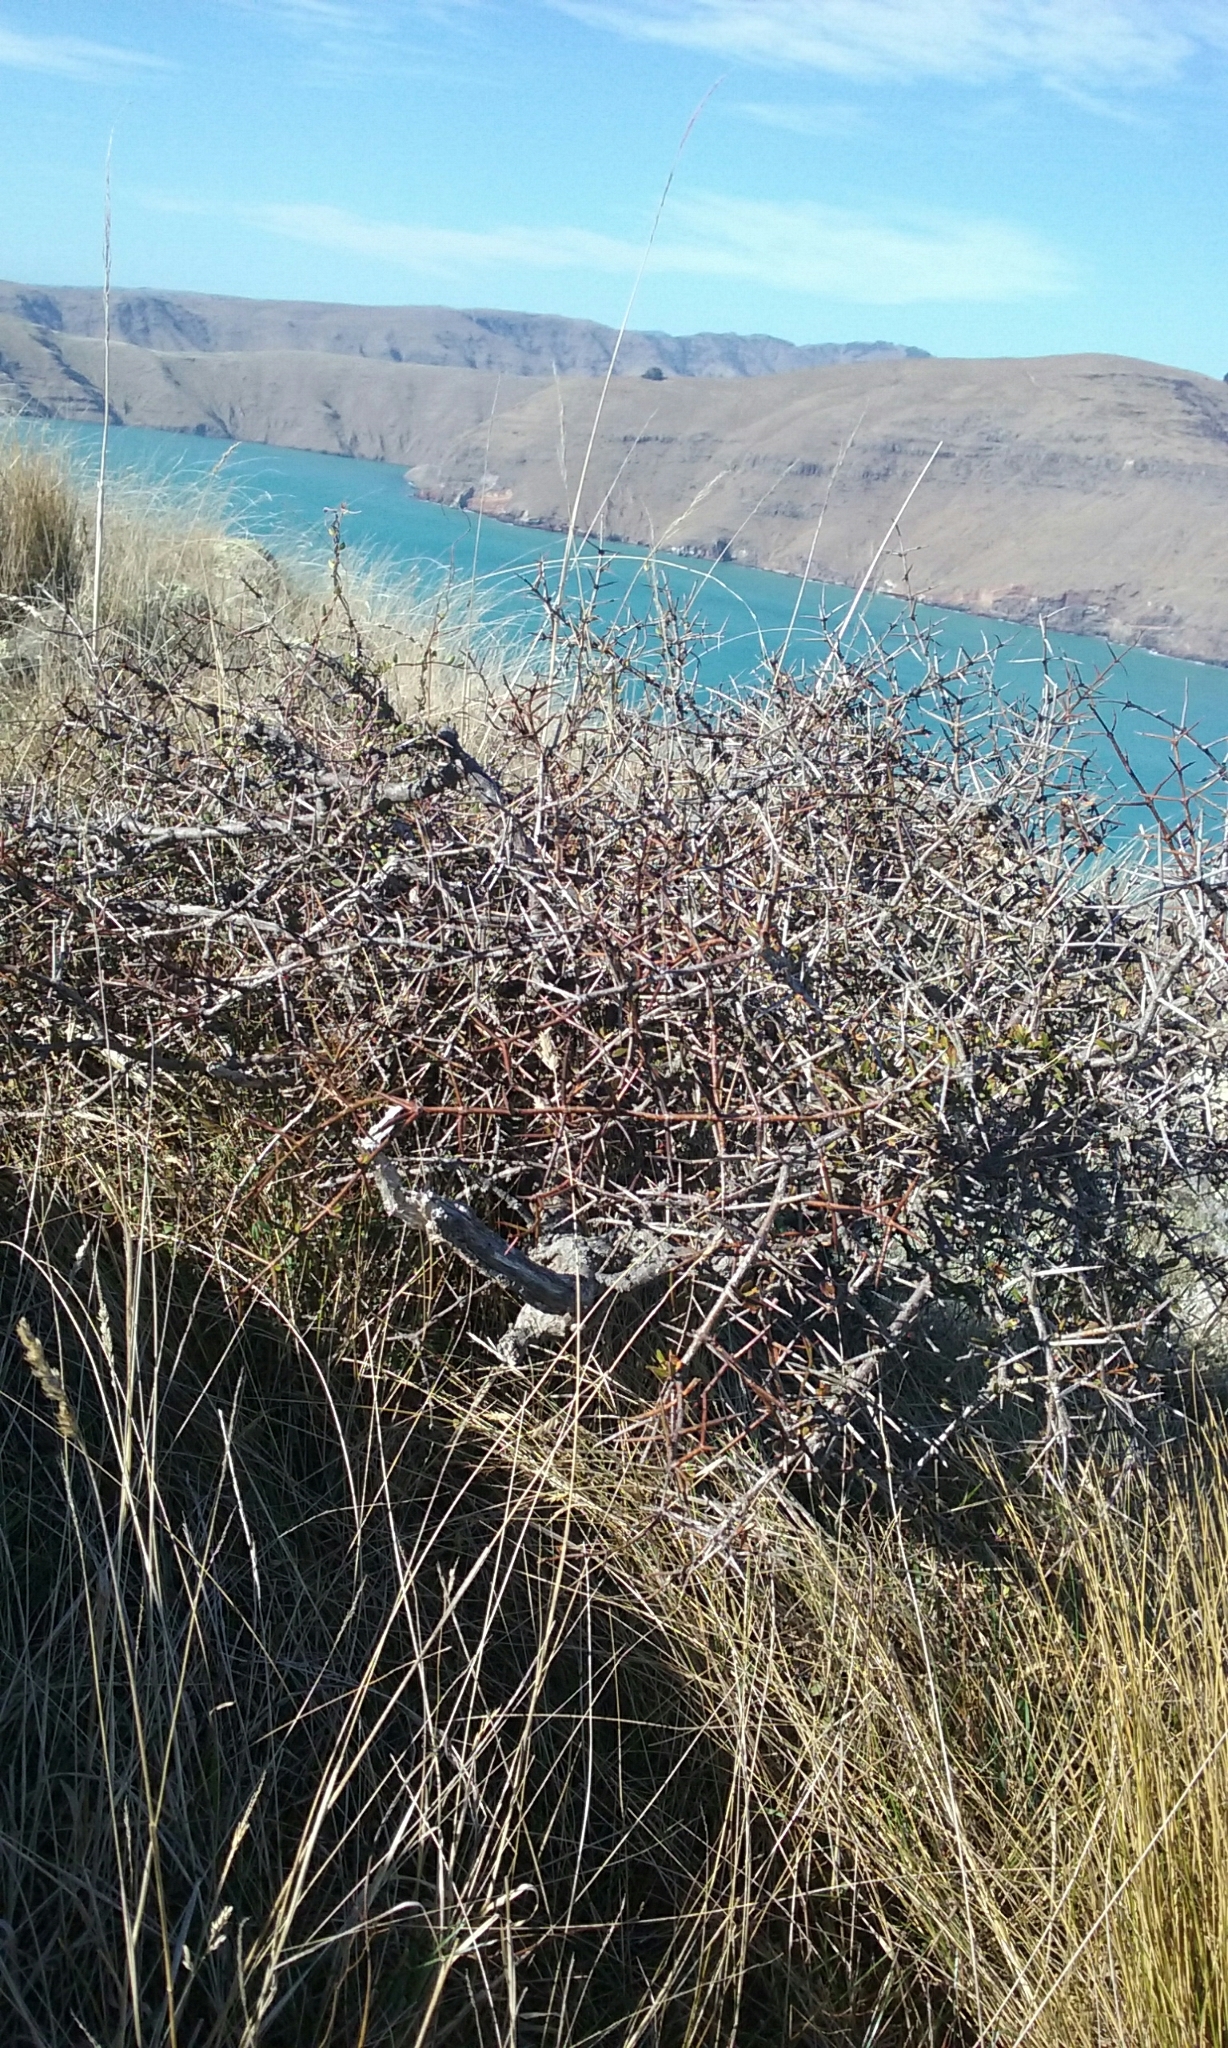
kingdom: Plantae
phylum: Tracheophyta
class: Magnoliopsida
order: Rosales
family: Rhamnaceae
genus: Discaria
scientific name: Discaria toumatou
